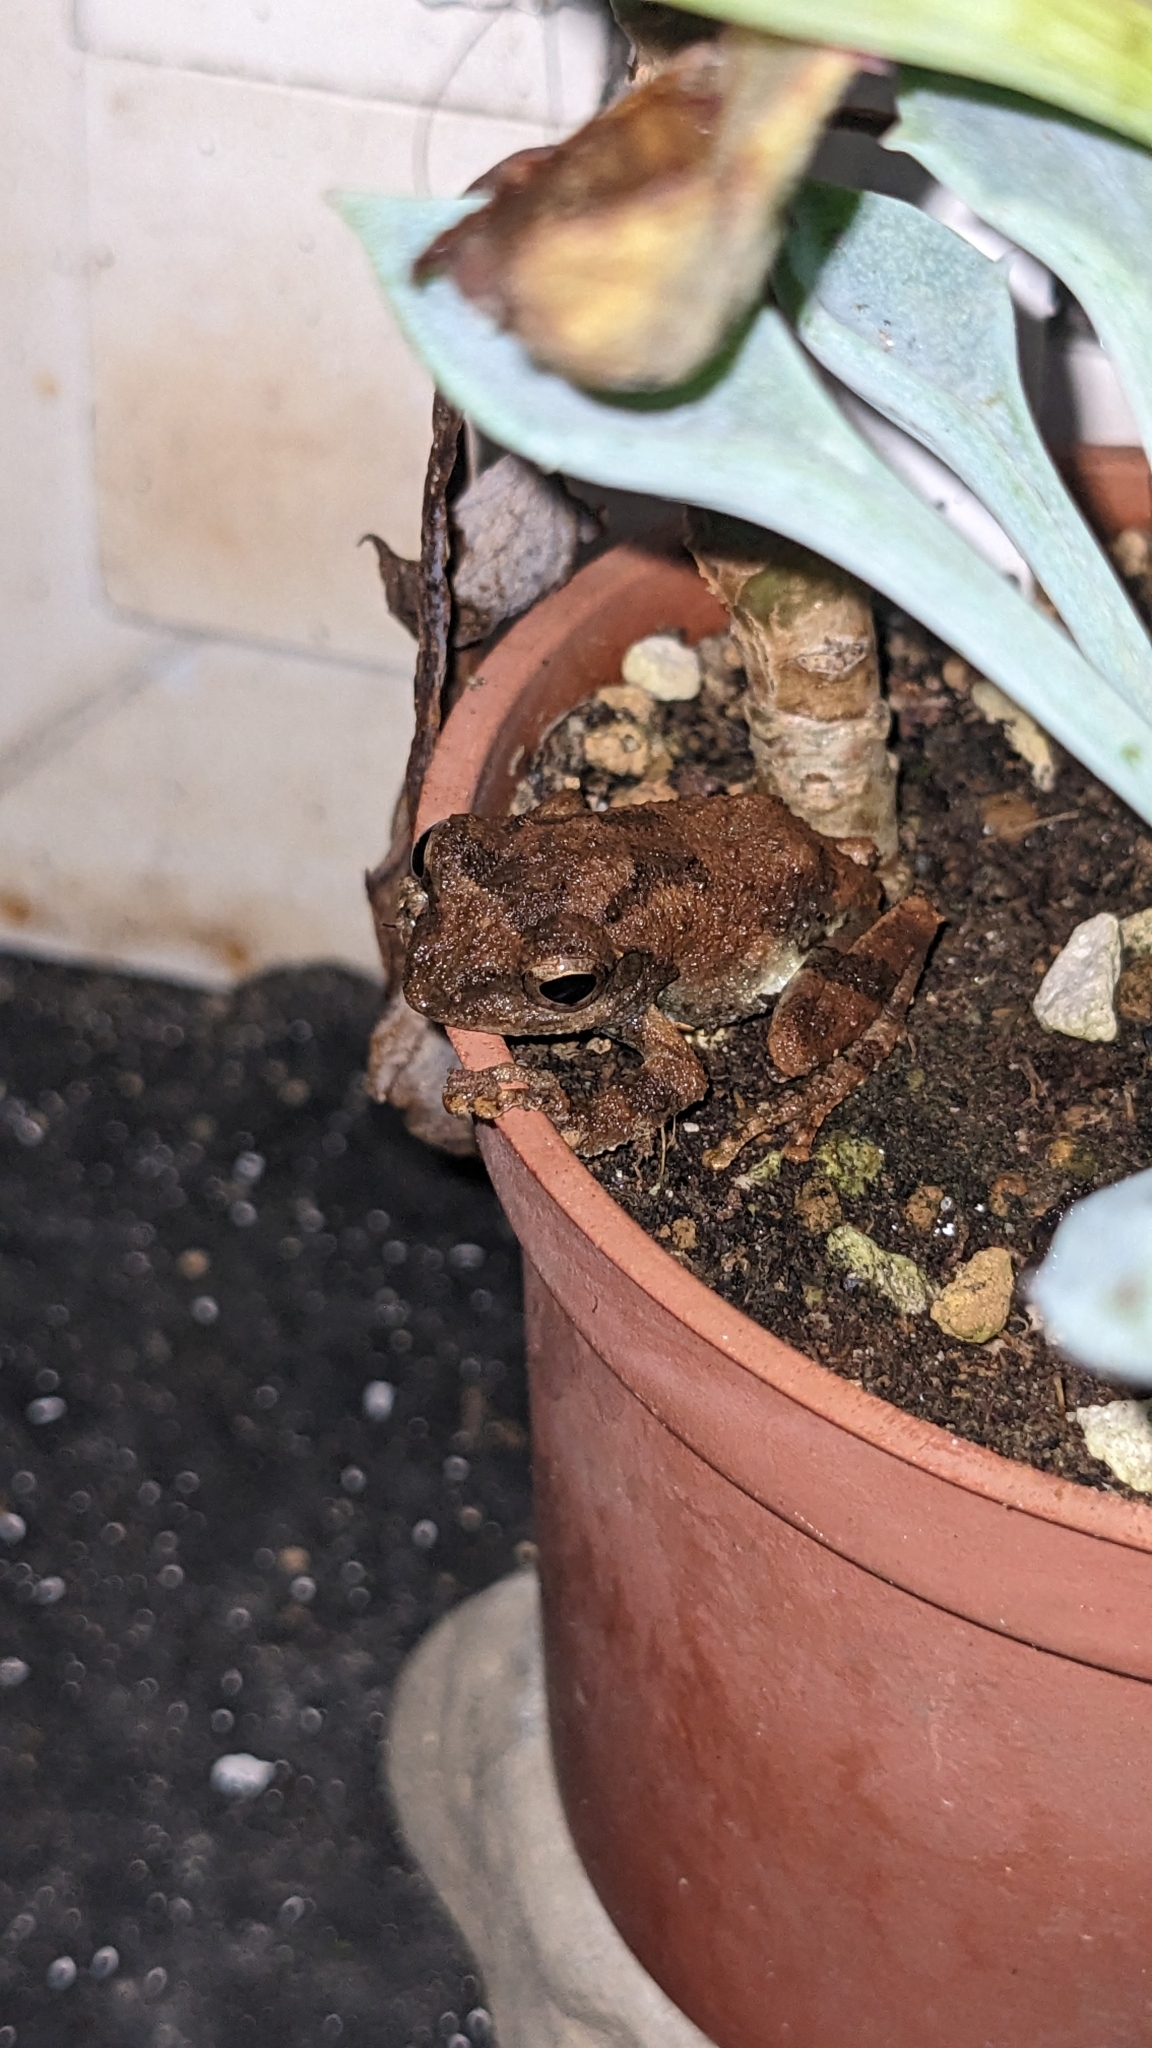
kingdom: Animalia
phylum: Chordata
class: Amphibia
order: Anura
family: Rhacophoridae
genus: Kurixalus
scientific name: Kurixalus idiootocus
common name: Temple treefrog
